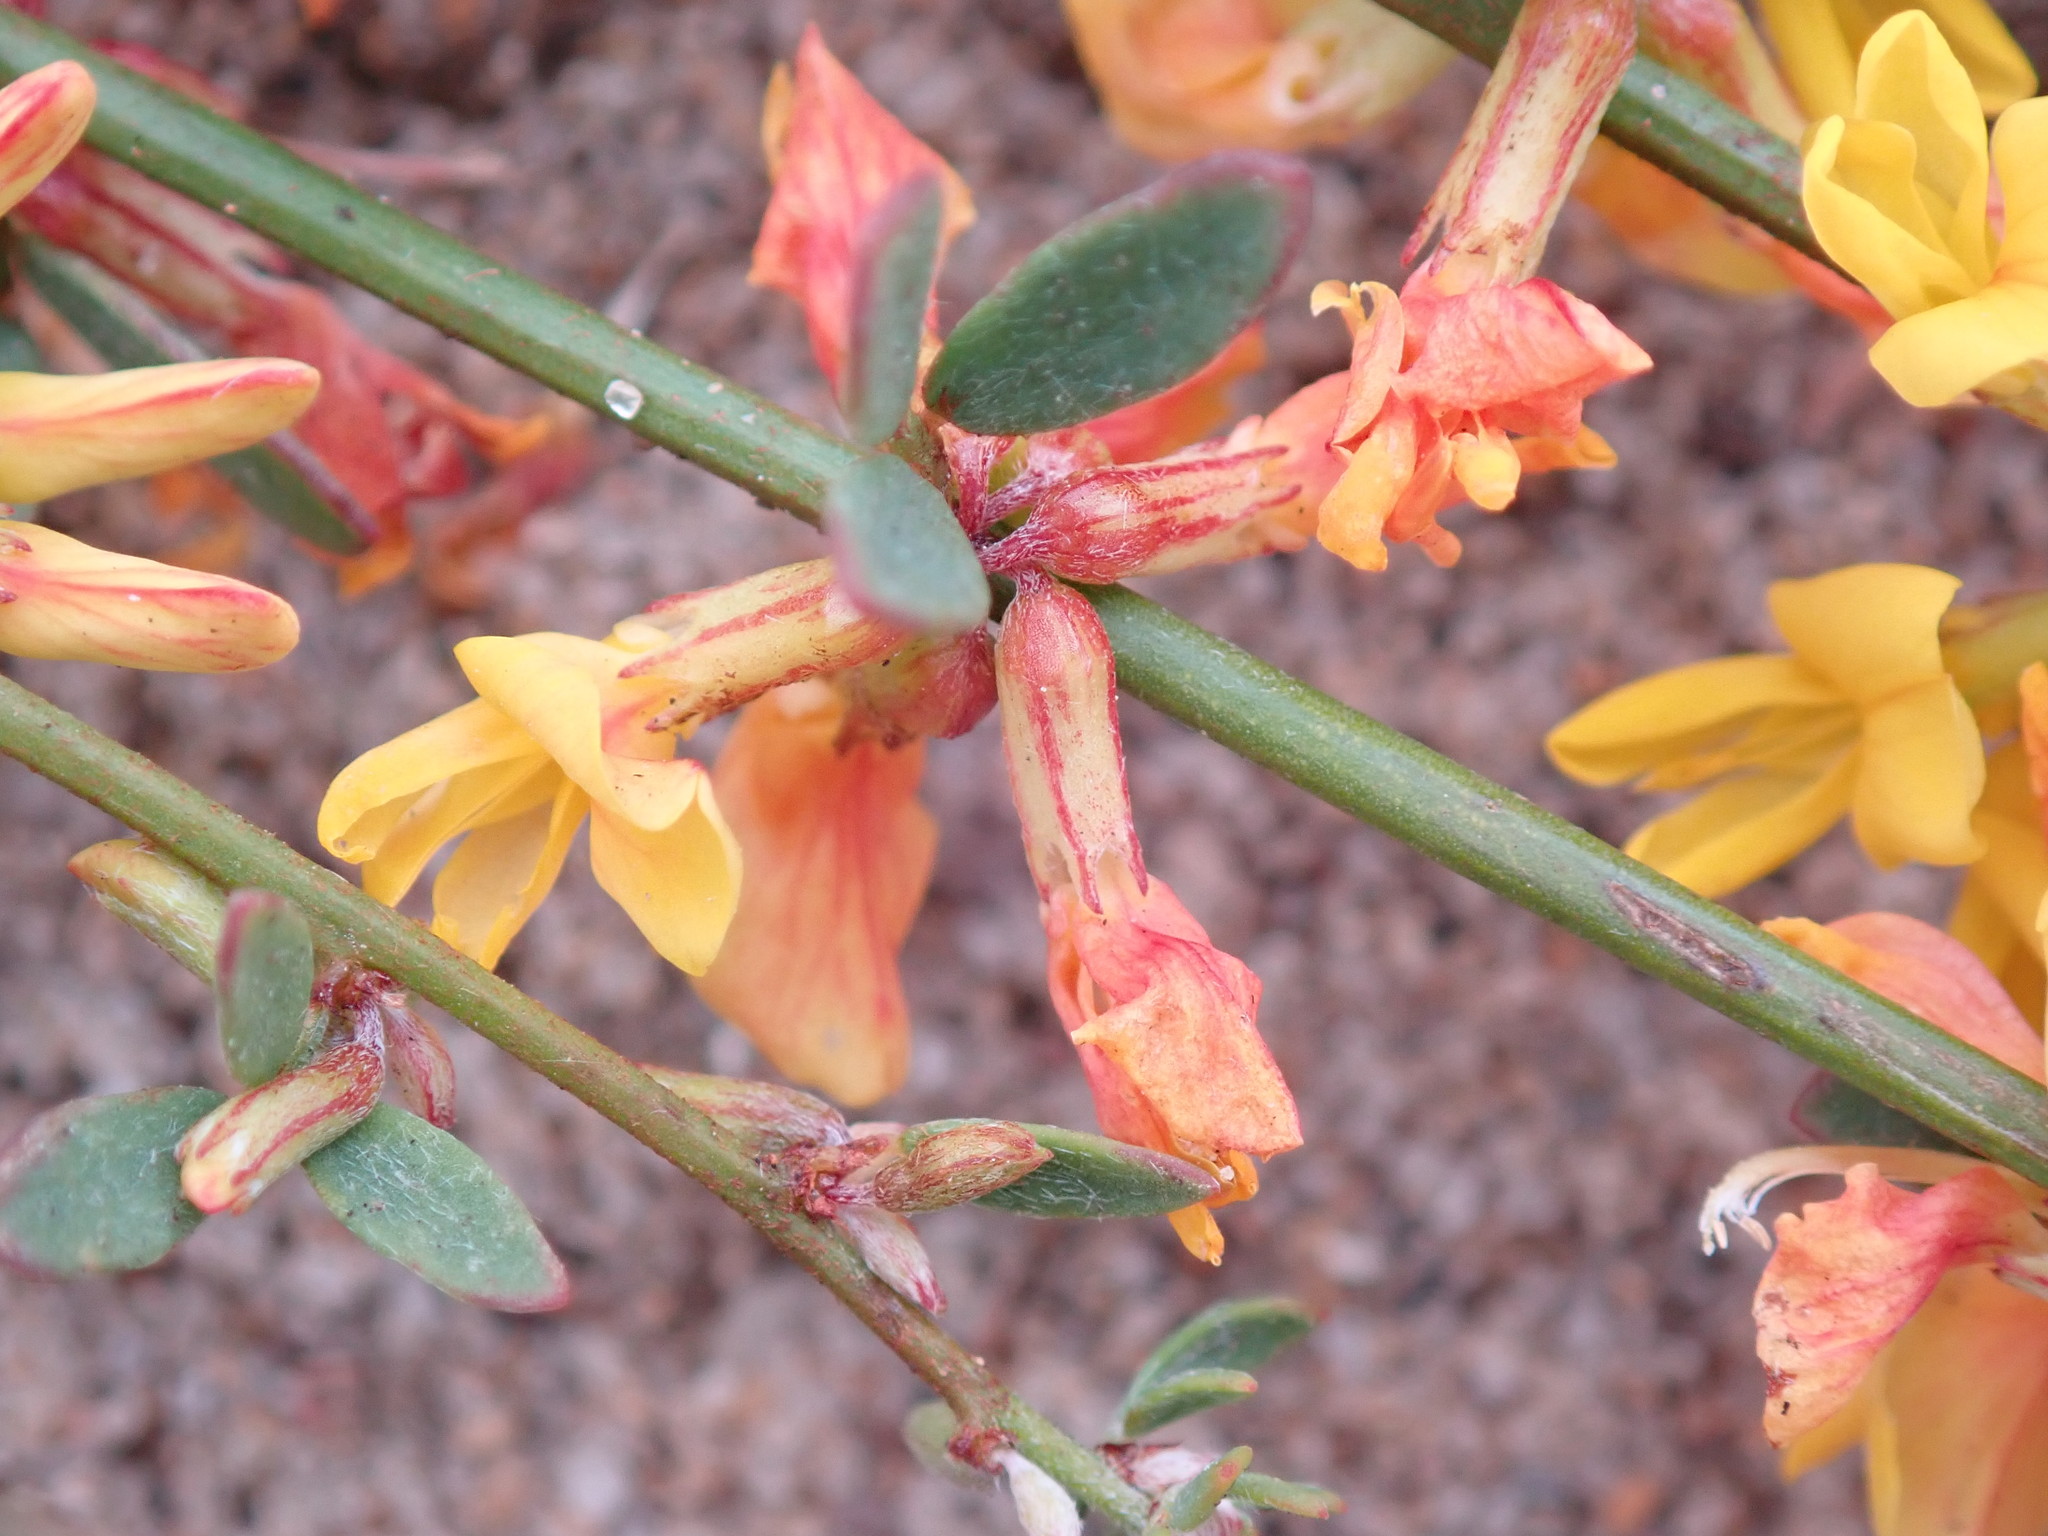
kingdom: Plantae
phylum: Tracheophyta
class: Magnoliopsida
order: Fabales
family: Fabaceae
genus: Acmispon
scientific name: Acmispon glaber
